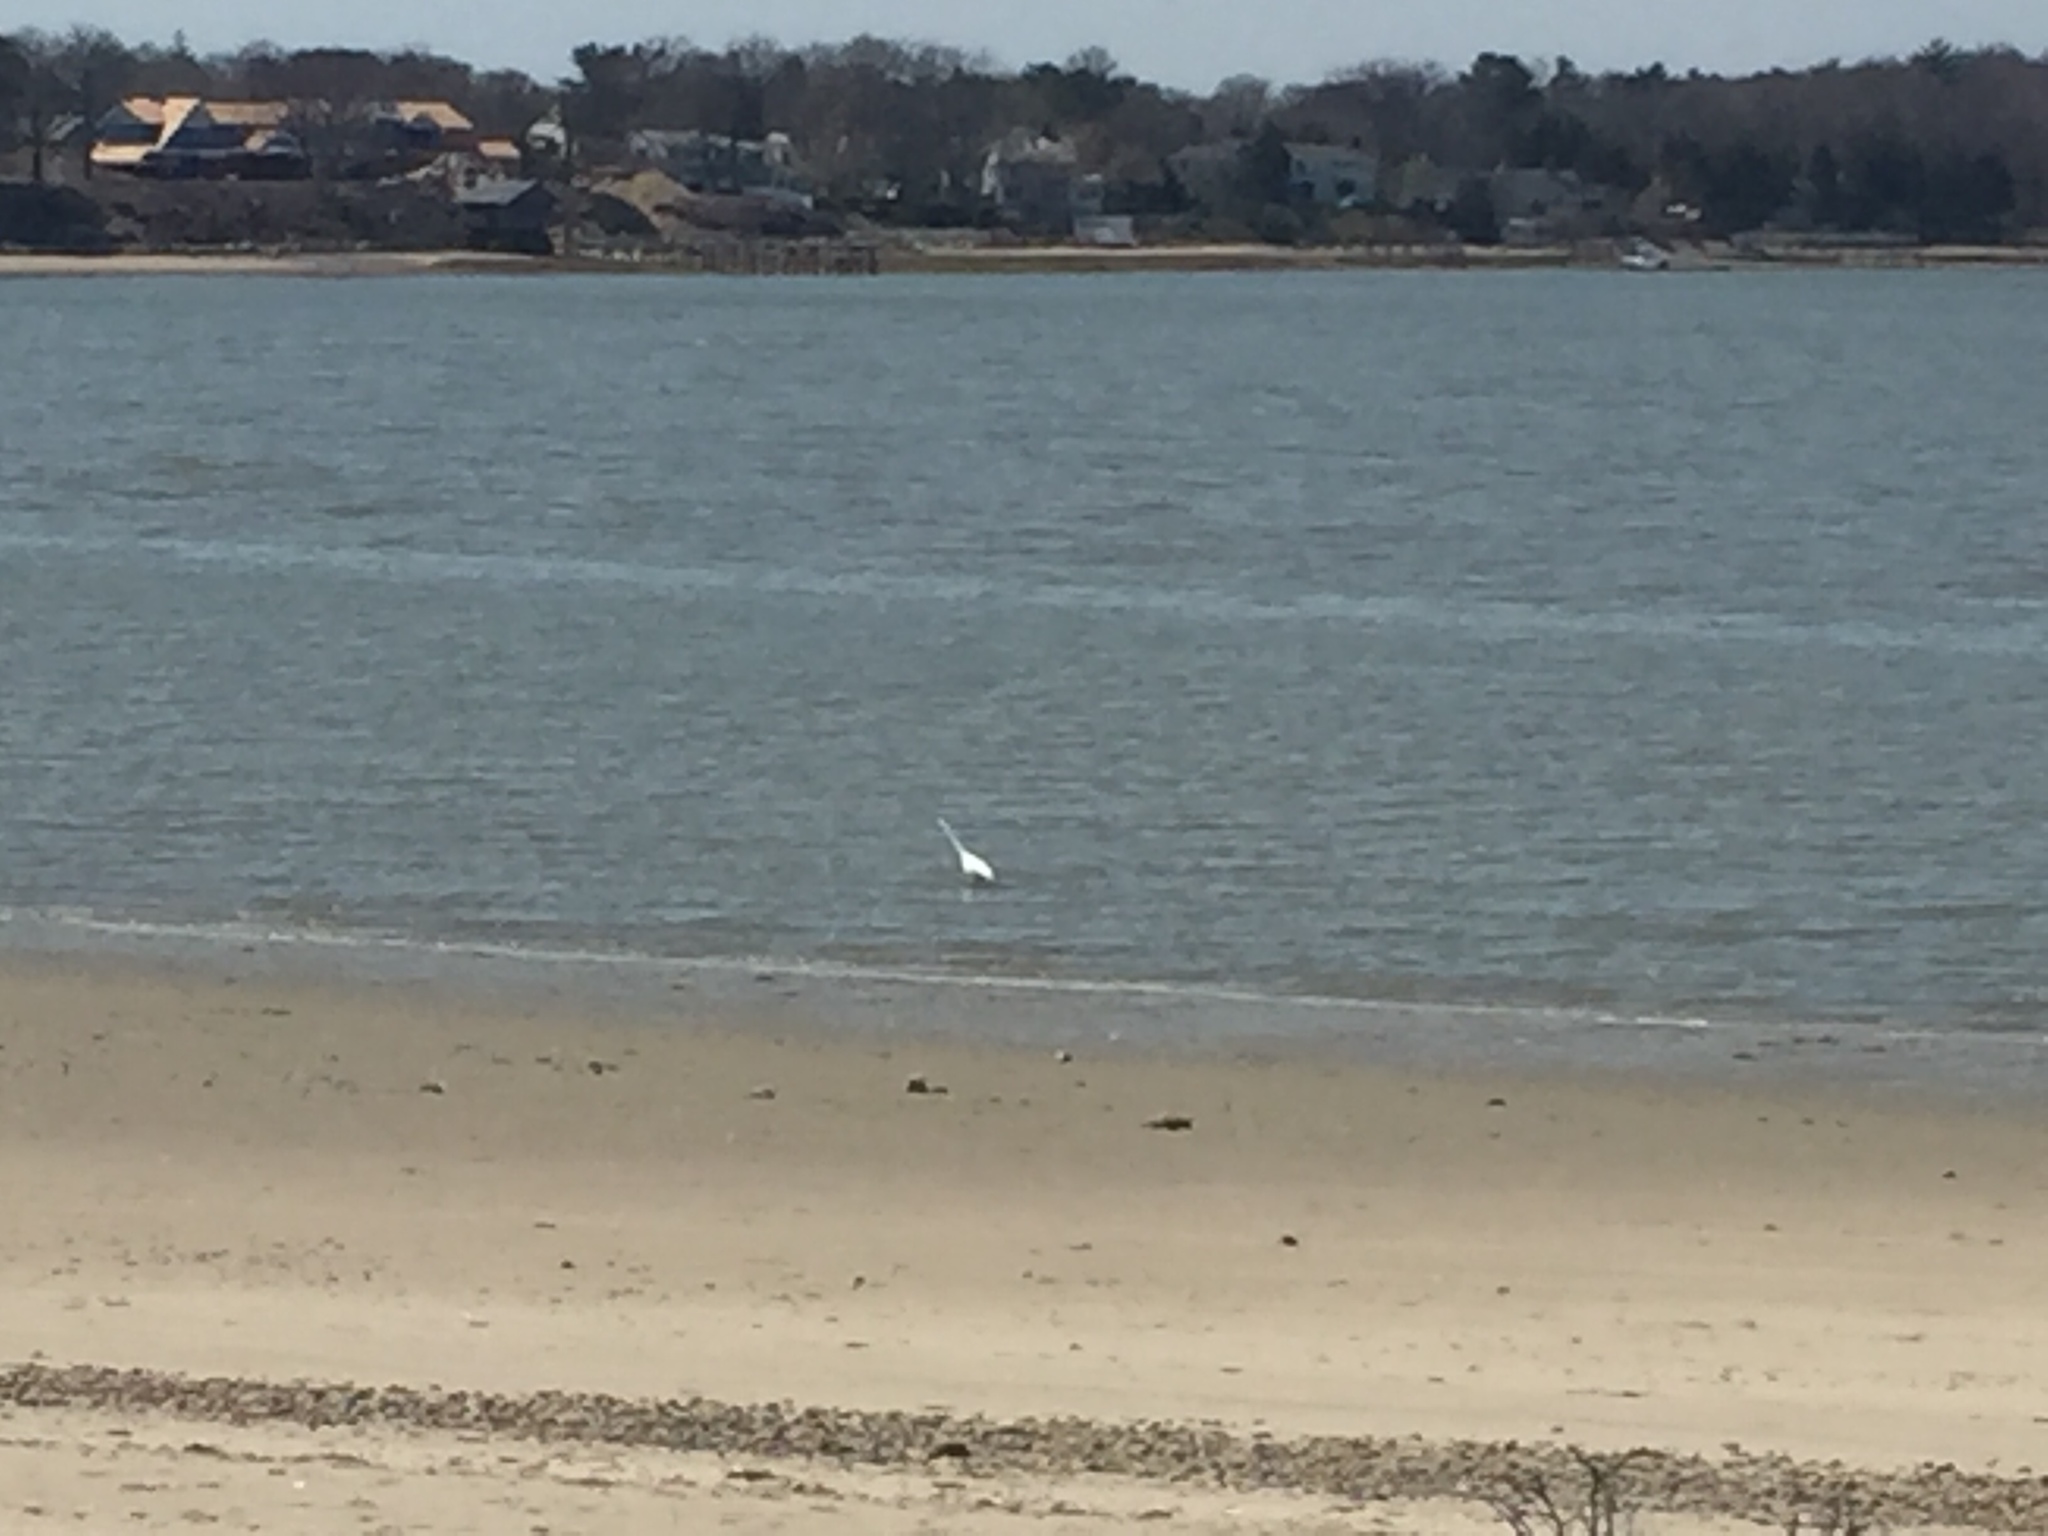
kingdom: Animalia
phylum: Chordata
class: Aves
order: Pelecaniformes
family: Ardeidae
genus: Ardea
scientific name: Ardea alba
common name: Great egret
